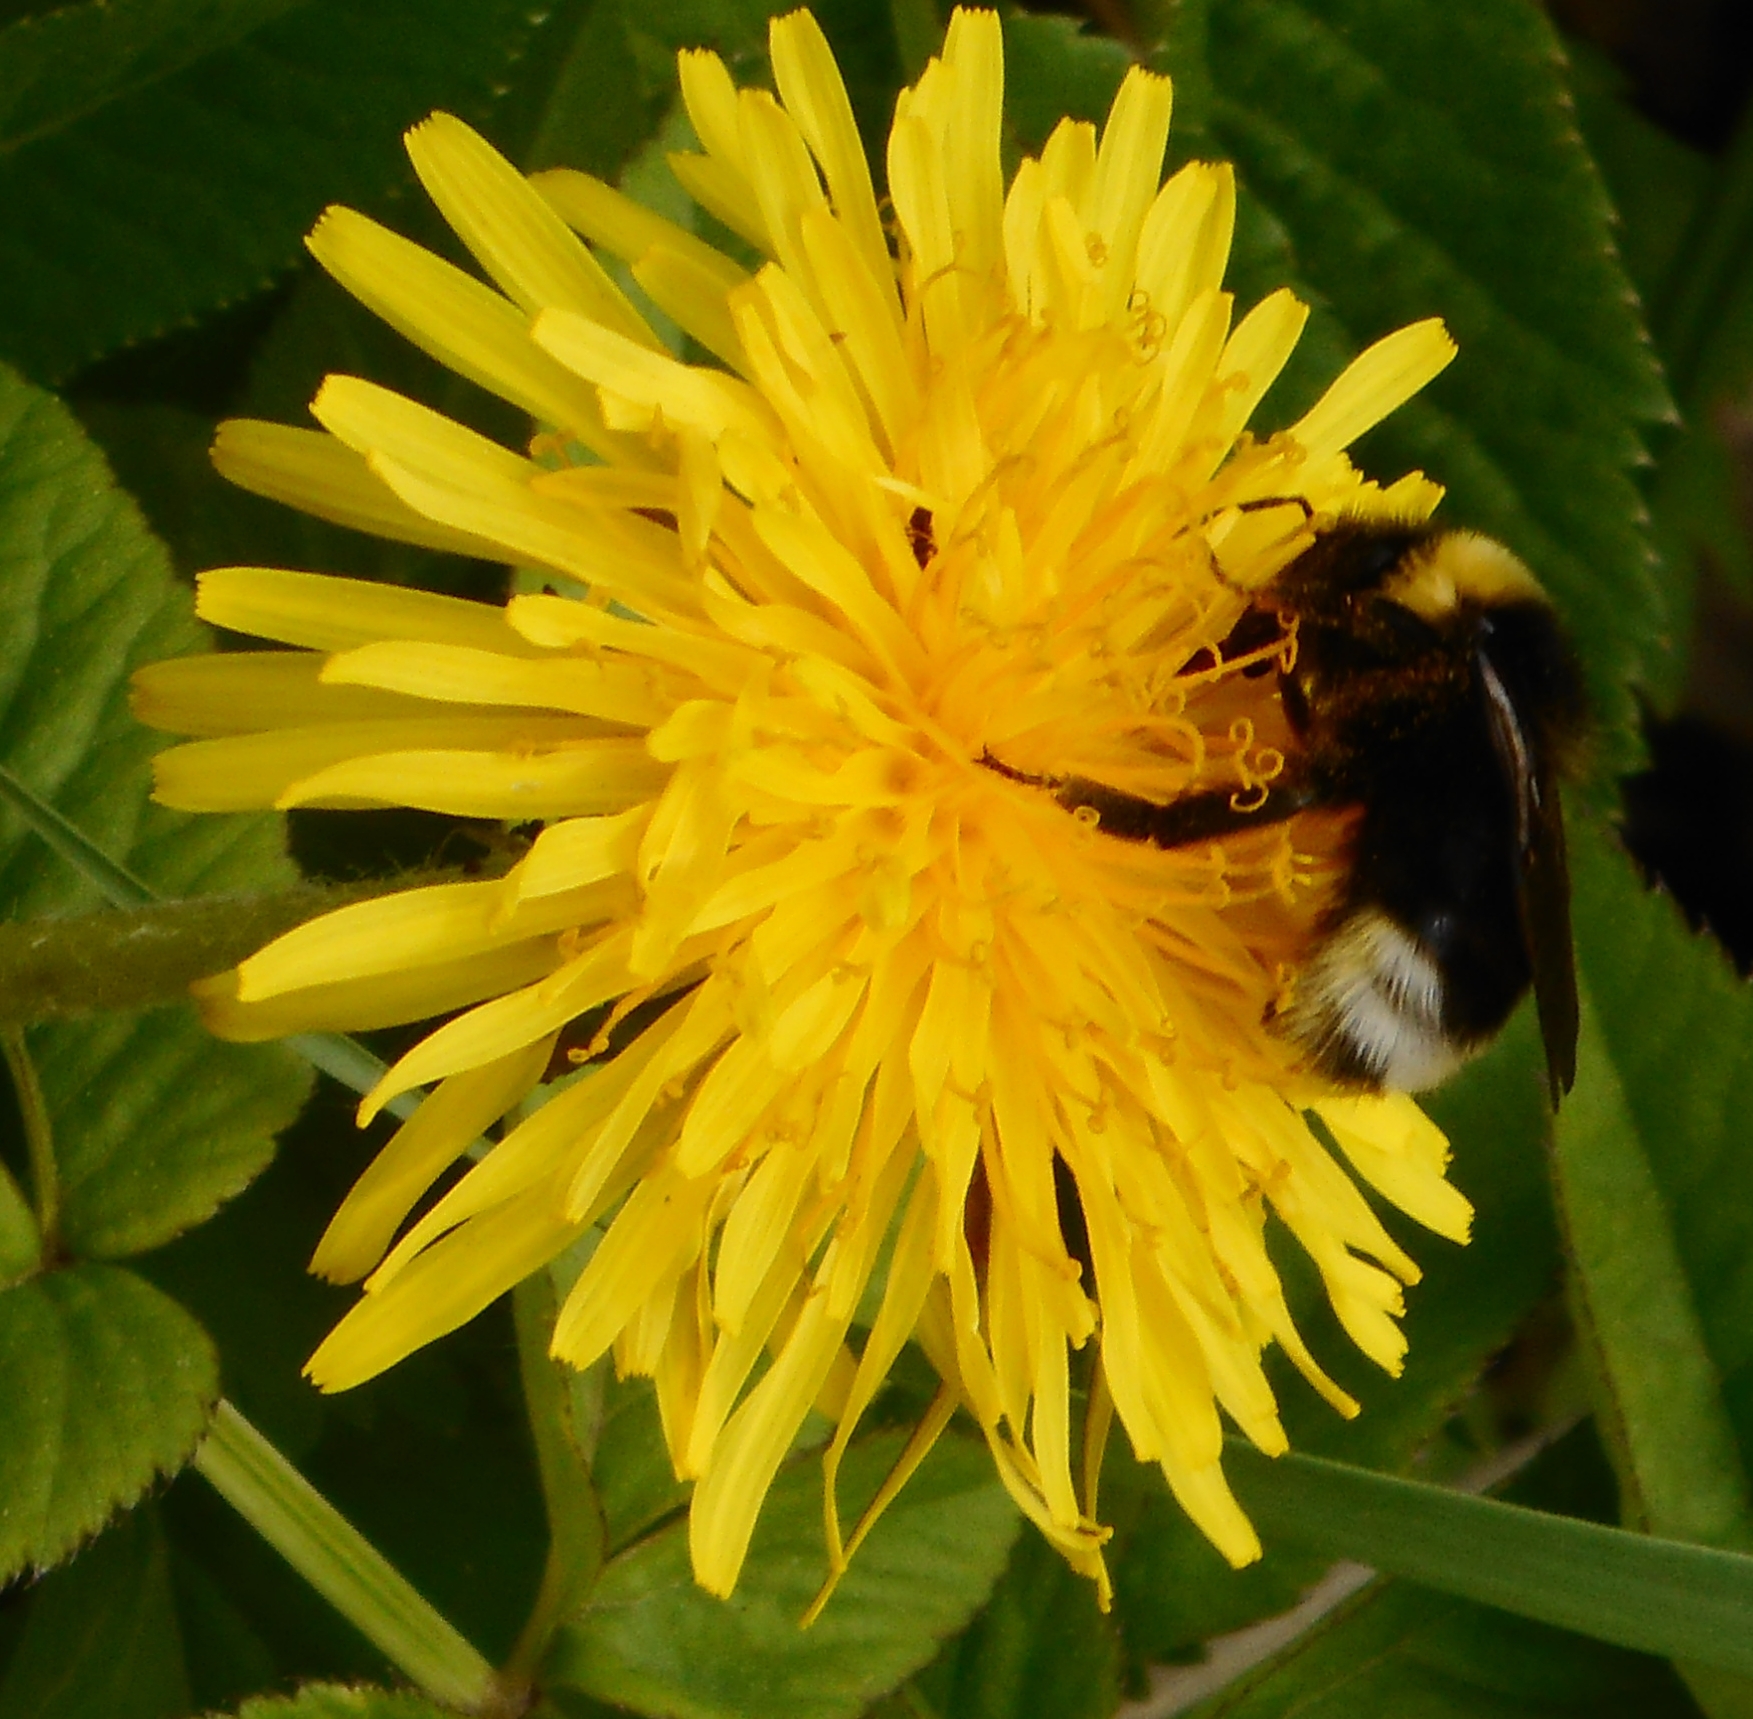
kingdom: Animalia
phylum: Arthropoda
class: Insecta
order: Hymenoptera
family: Apidae
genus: Bombus
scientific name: Bombus bohemicus
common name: Gypsy cuckoo bee
